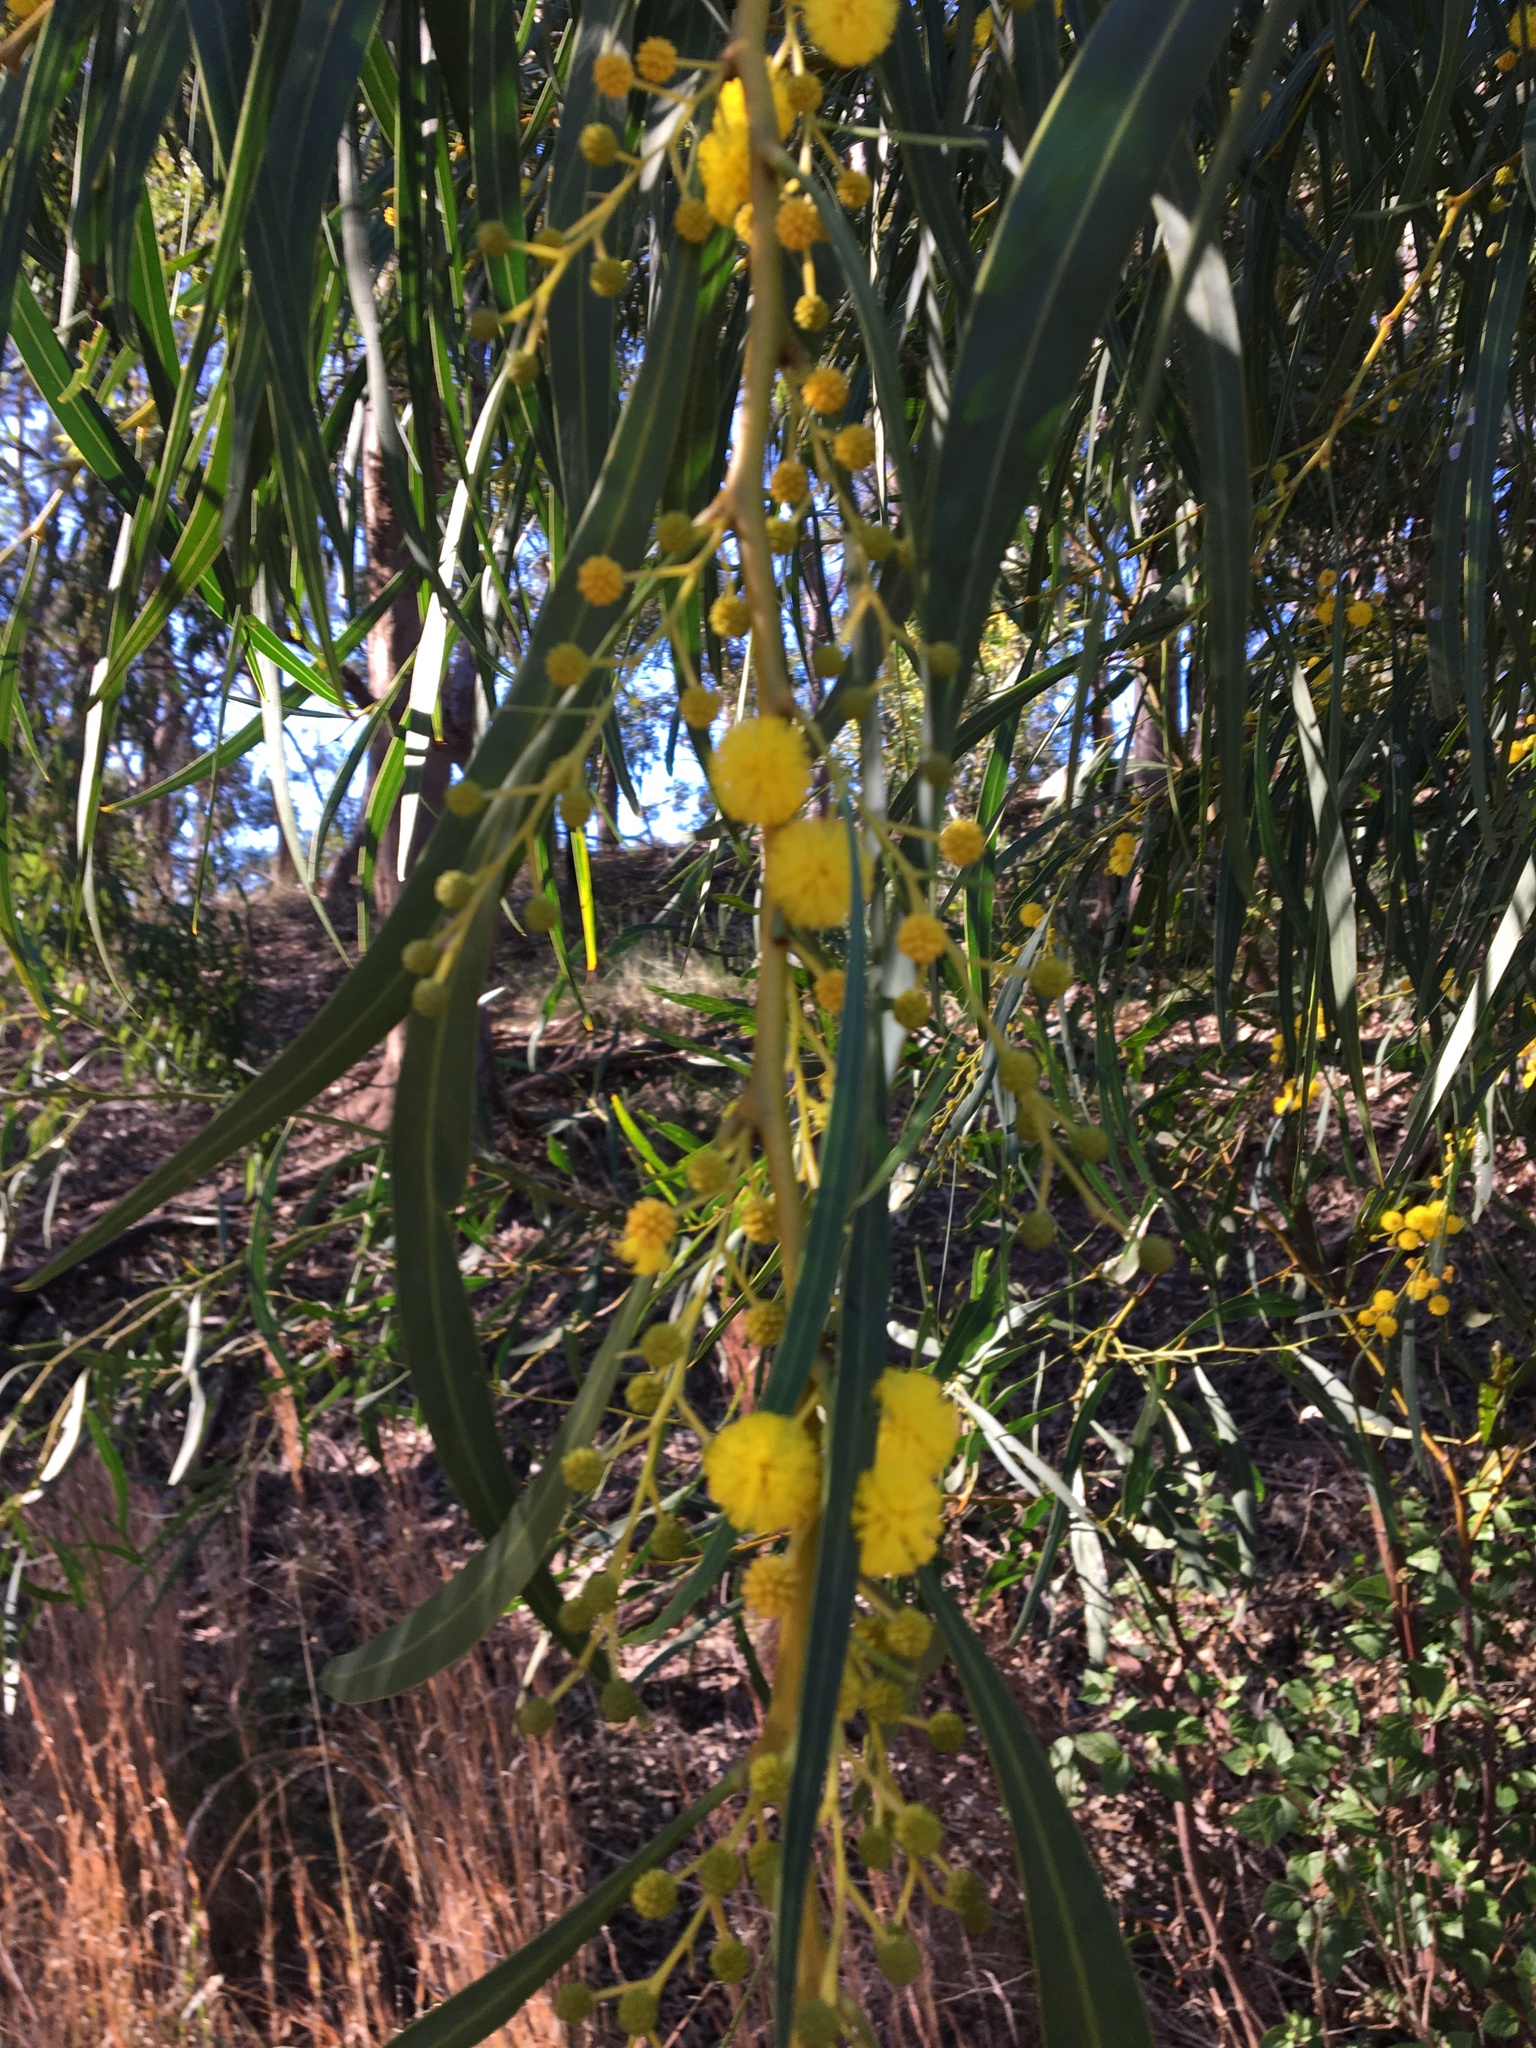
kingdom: Plantae
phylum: Tracheophyta
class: Magnoliopsida
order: Fabales
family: Fabaceae
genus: Acacia
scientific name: Acacia saligna
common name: Orange wattle
